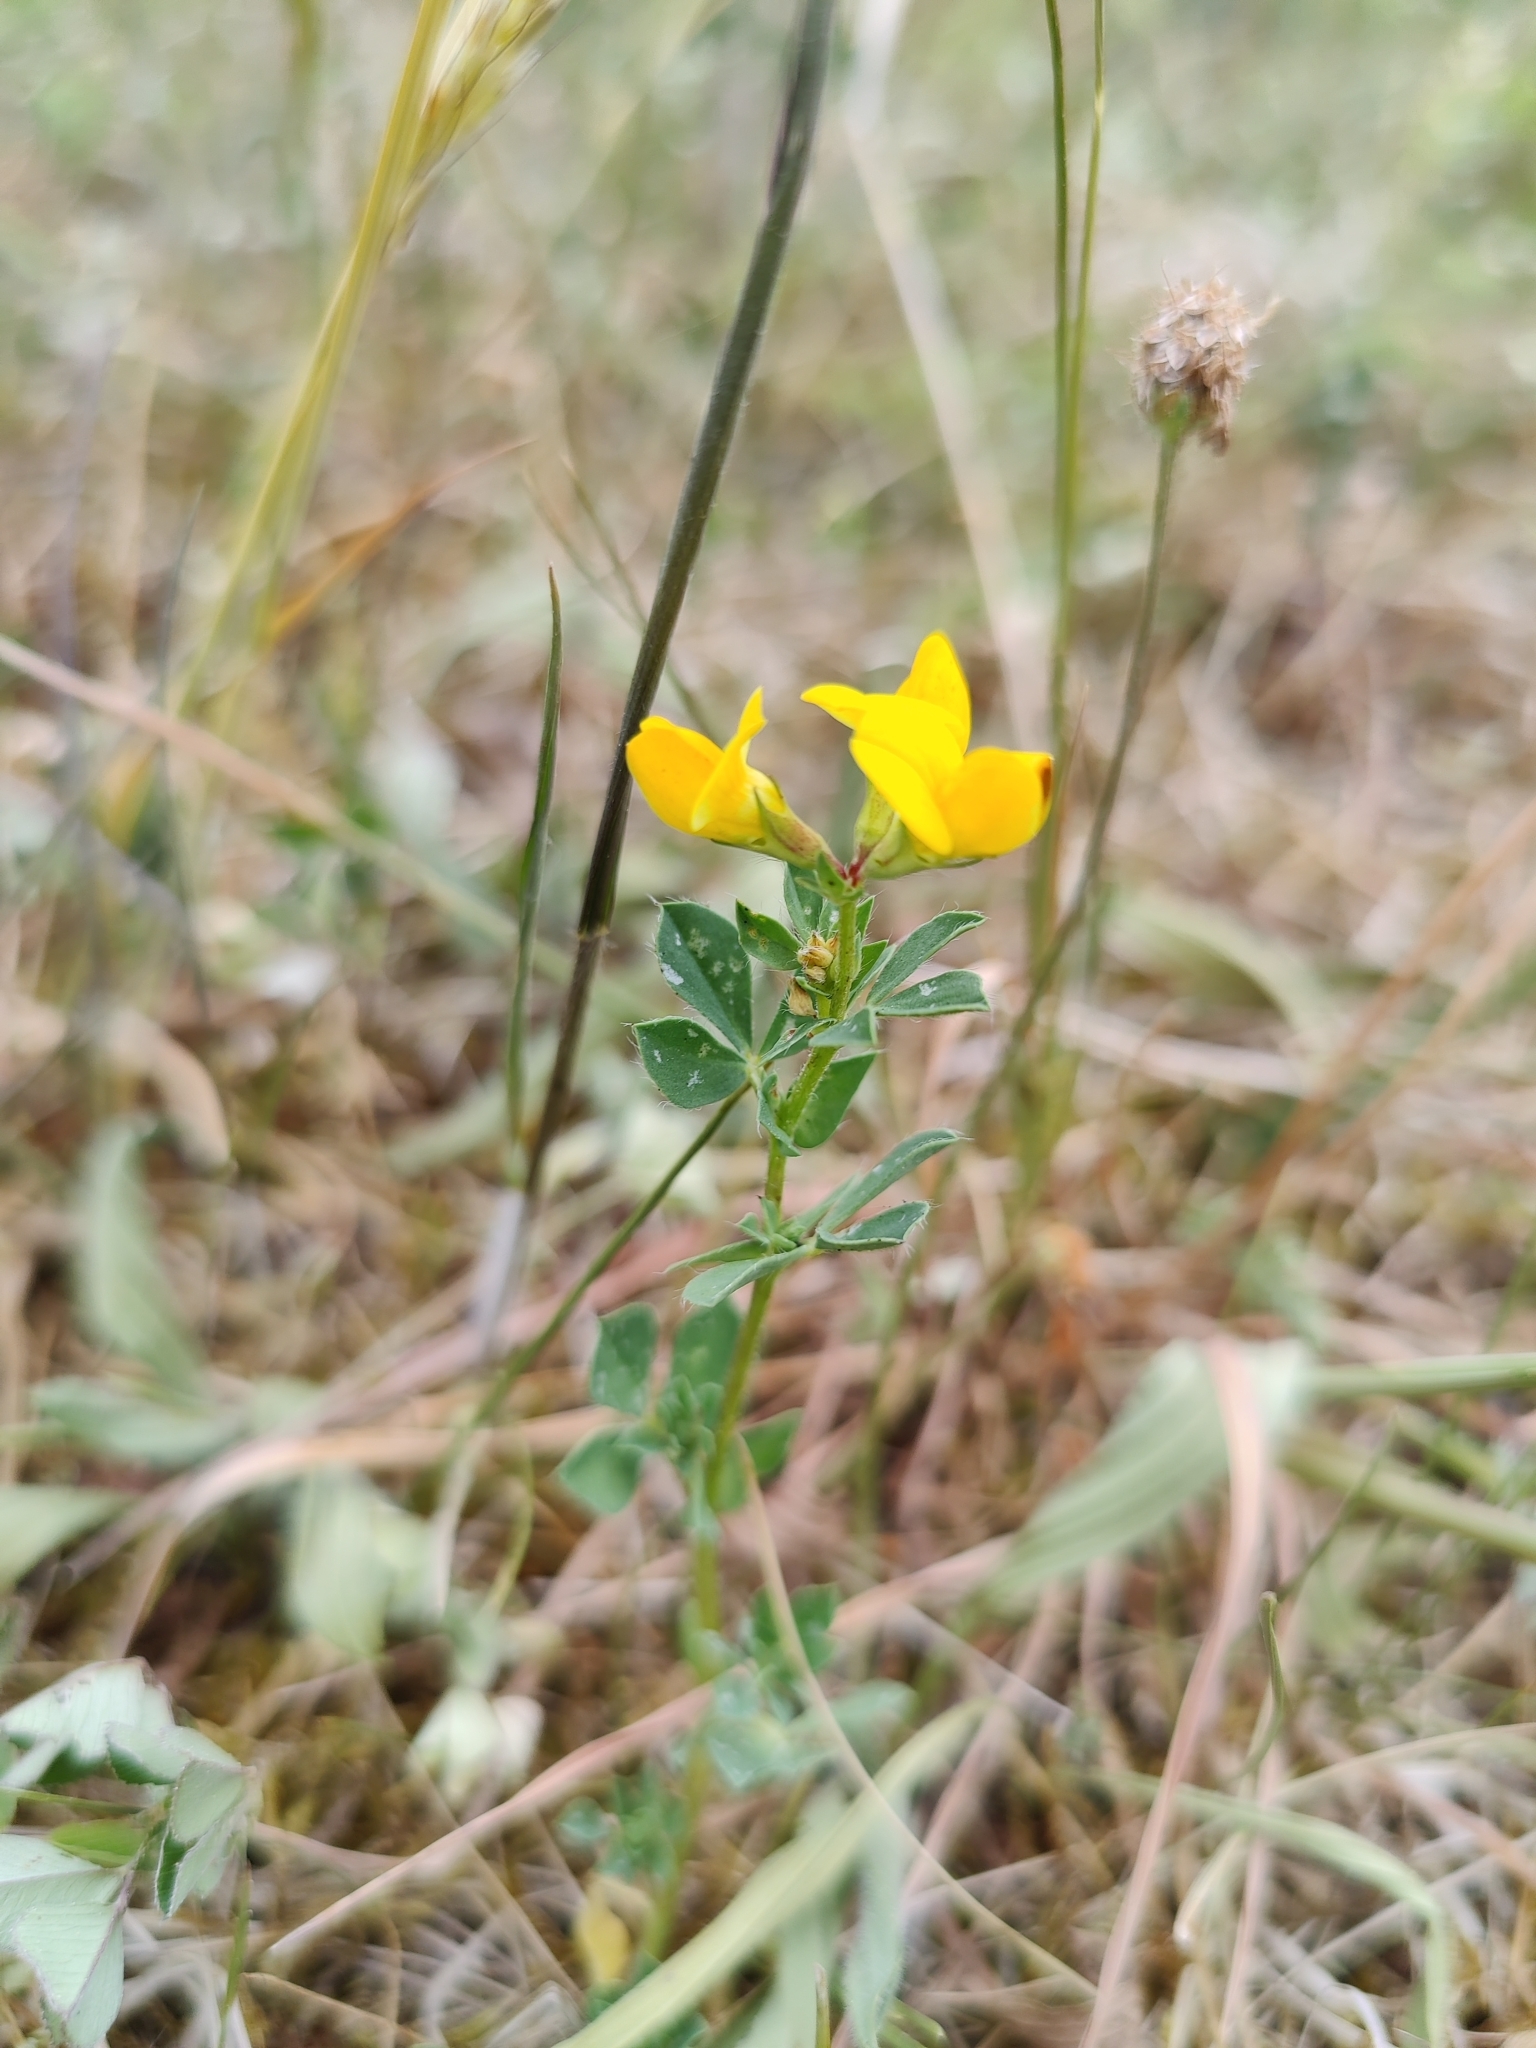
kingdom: Plantae
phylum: Tracheophyta
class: Magnoliopsida
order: Fabales
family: Fabaceae
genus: Lotus
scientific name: Lotus corniculatus
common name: Common bird's-foot-trefoil
